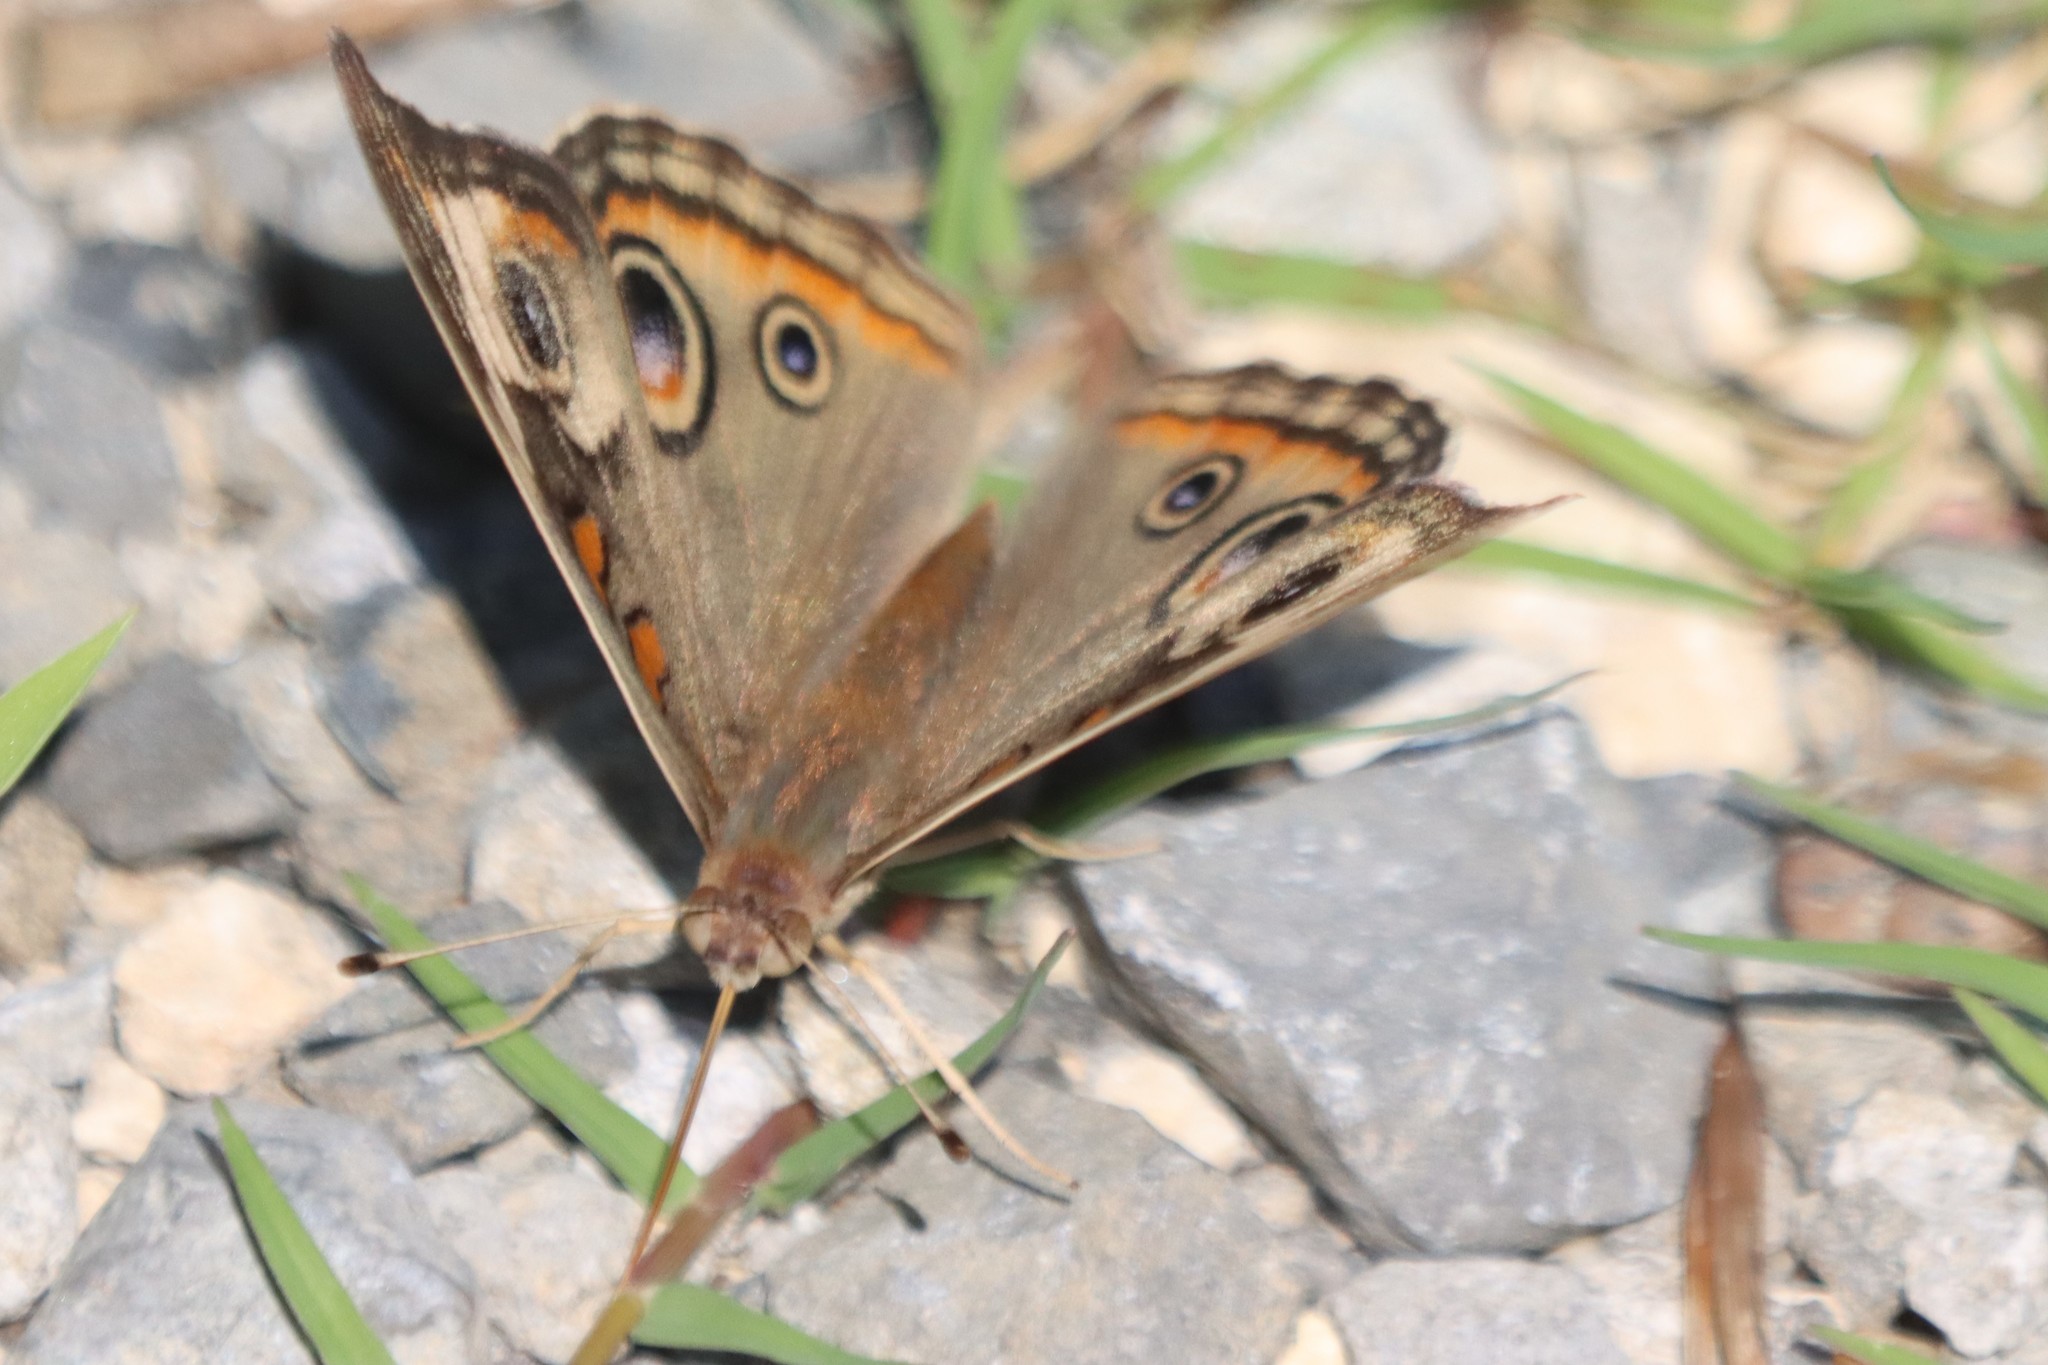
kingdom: Animalia
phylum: Arthropoda
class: Insecta
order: Lepidoptera
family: Nymphalidae
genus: Junonia
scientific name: Junonia coenia
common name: Common buckeye
